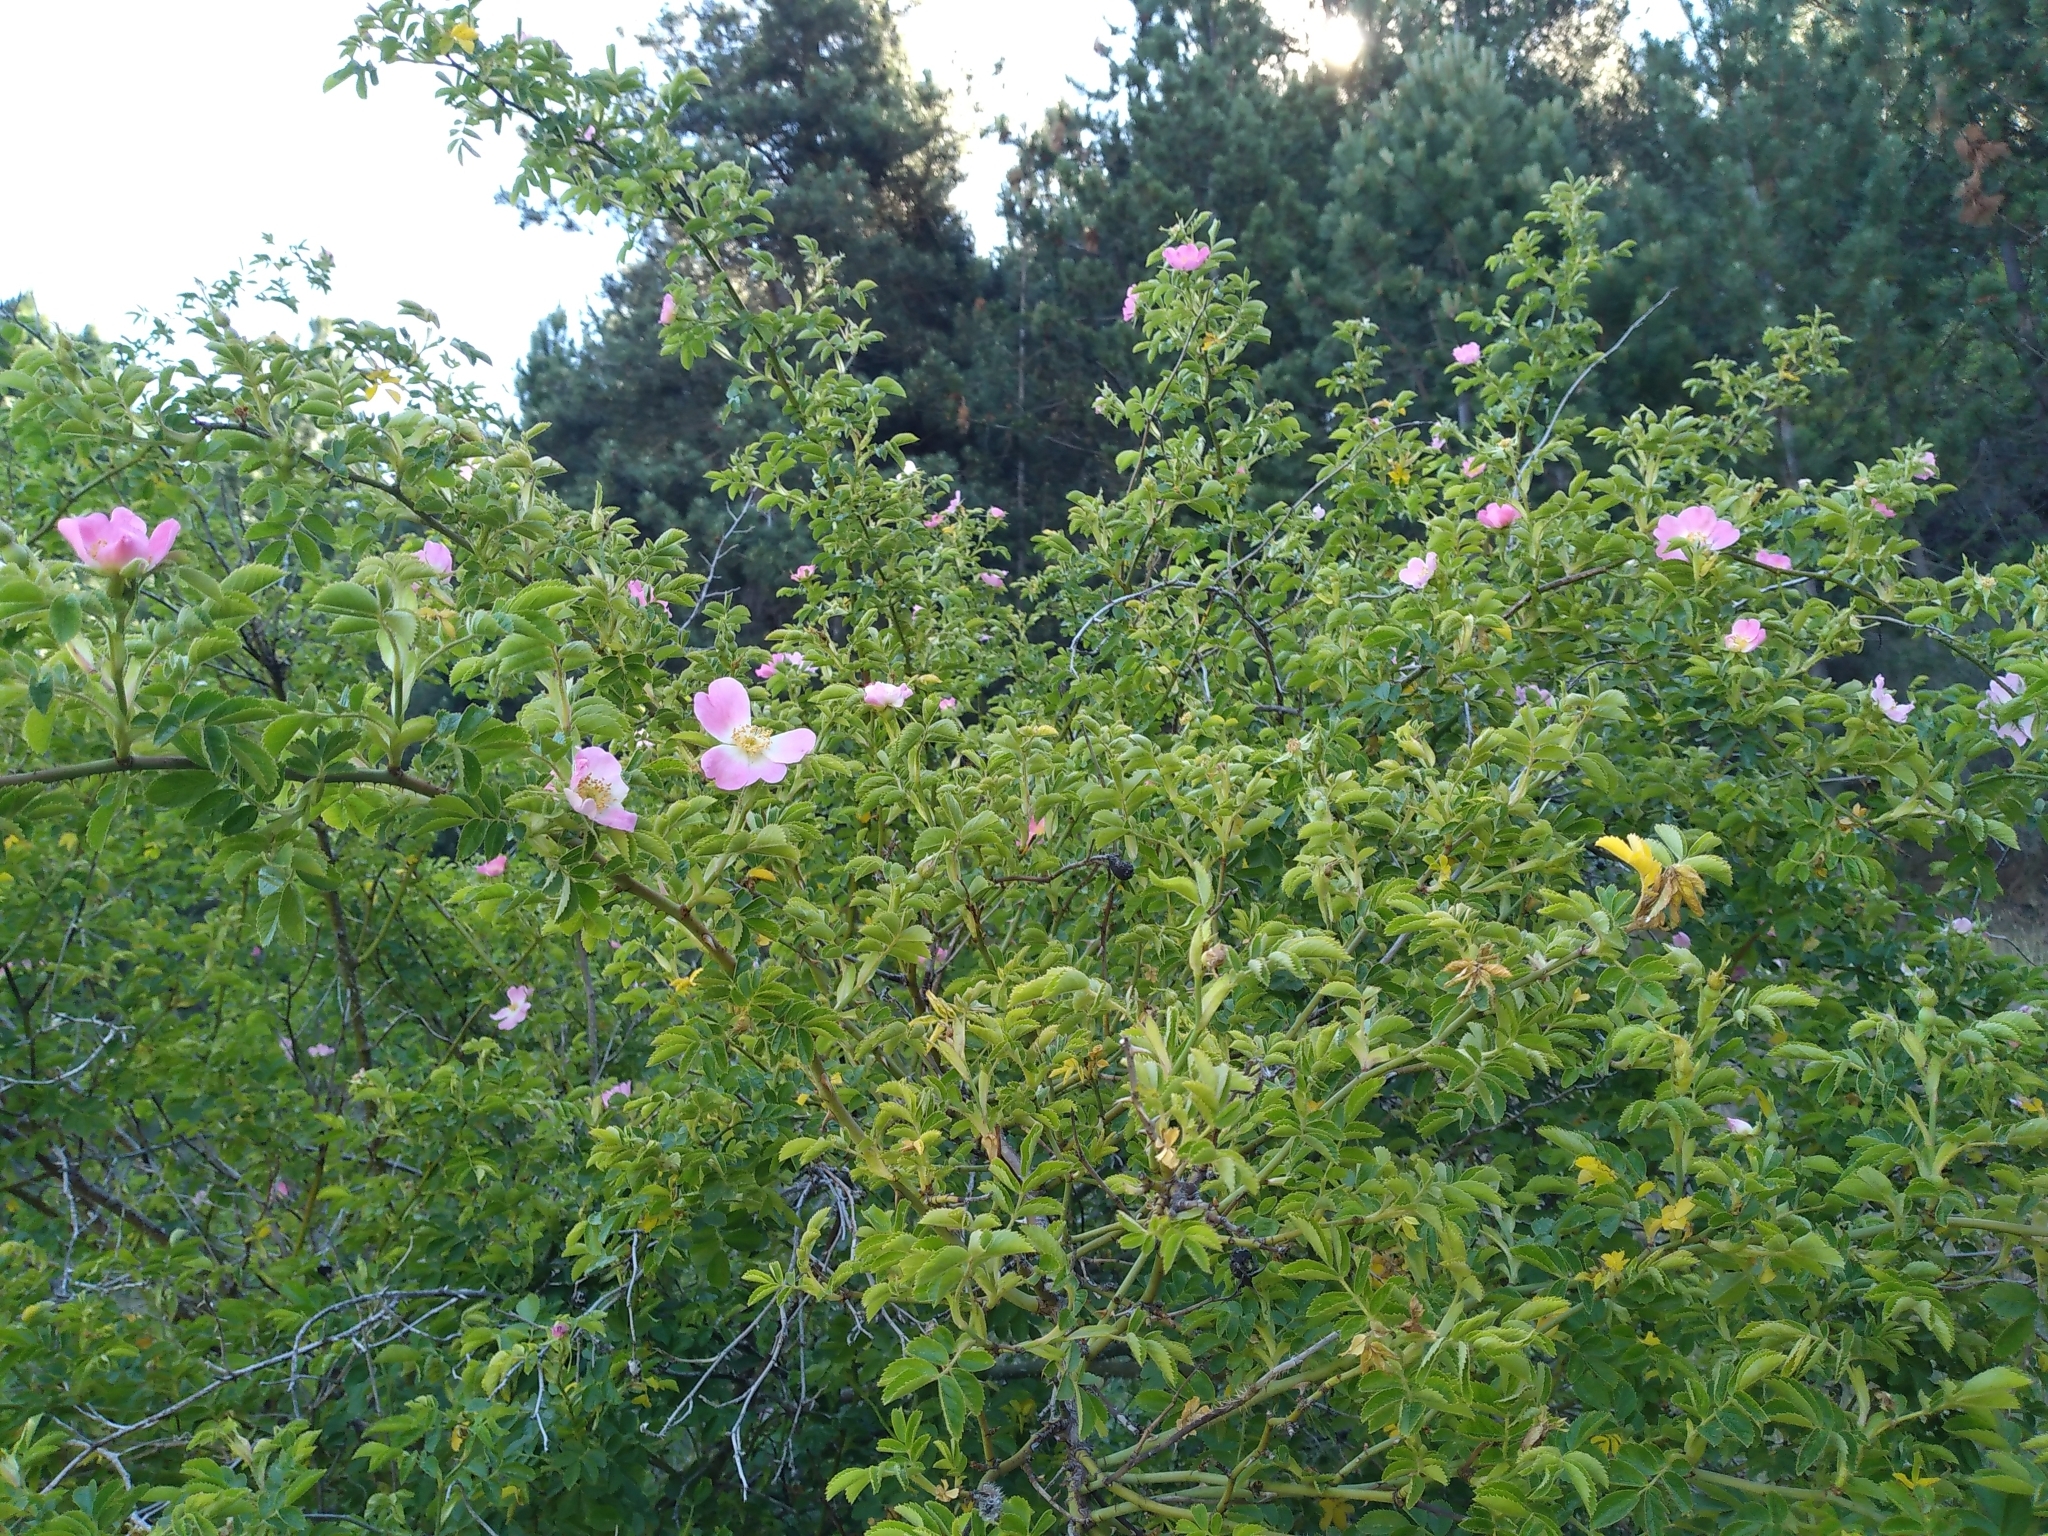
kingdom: Plantae
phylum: Tracheophyta
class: Magnoliopsida
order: Rosales
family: Rosaceae
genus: Rosa
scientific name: Rosa rubiginosa
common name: Sweet-briar
